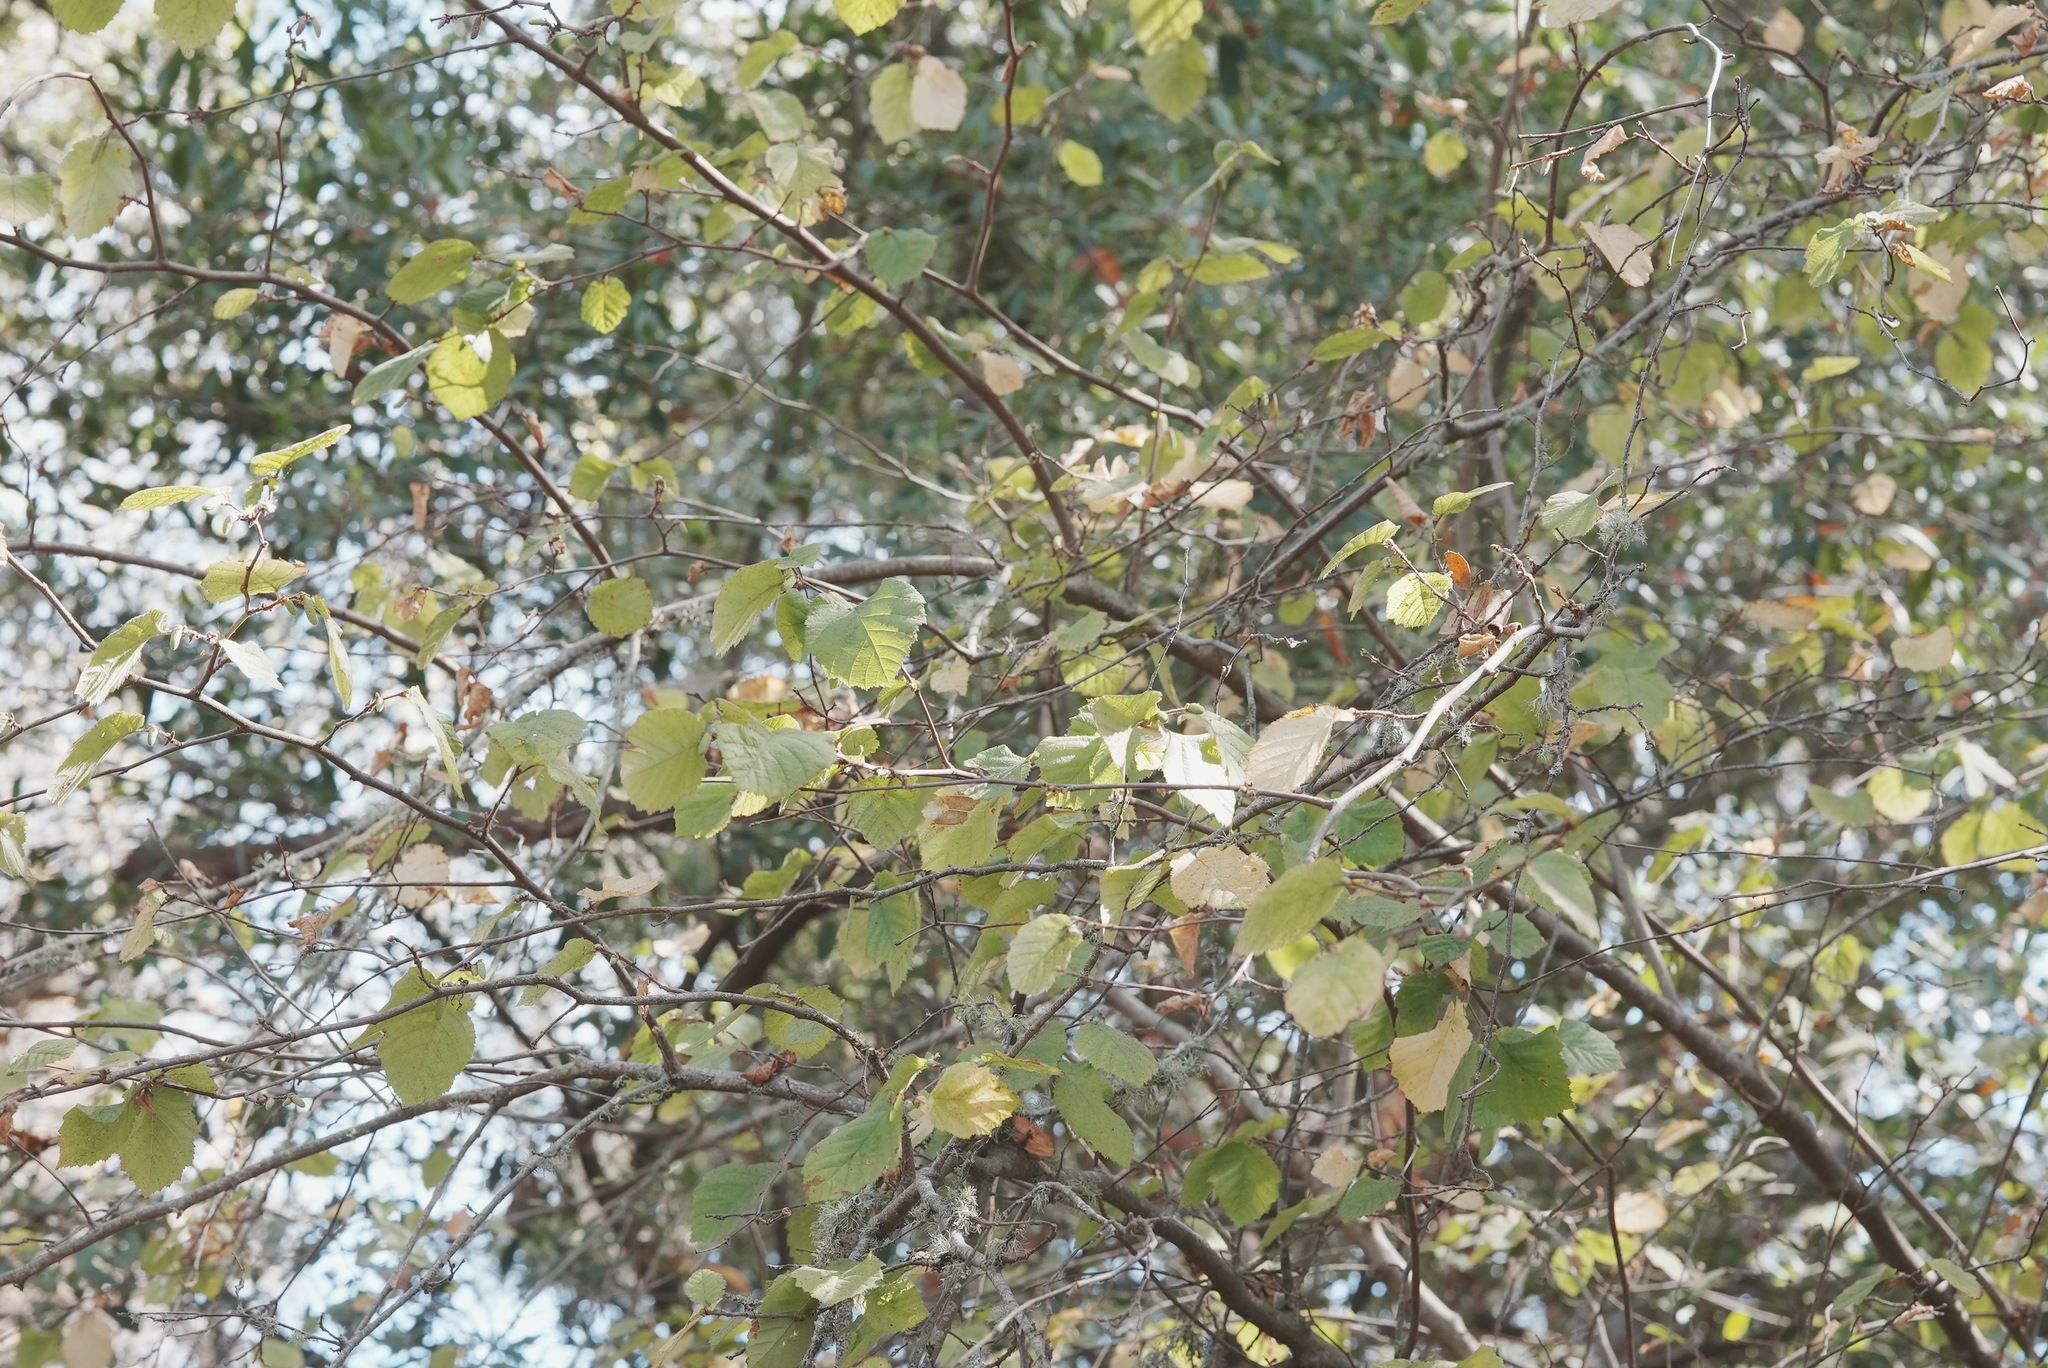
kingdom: Plantae
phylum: Tracheophyta
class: Magnoliopsida
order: Fagales
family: Betulaceae
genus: Corylus
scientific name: Corylus cornuta
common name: Beaked hazel
